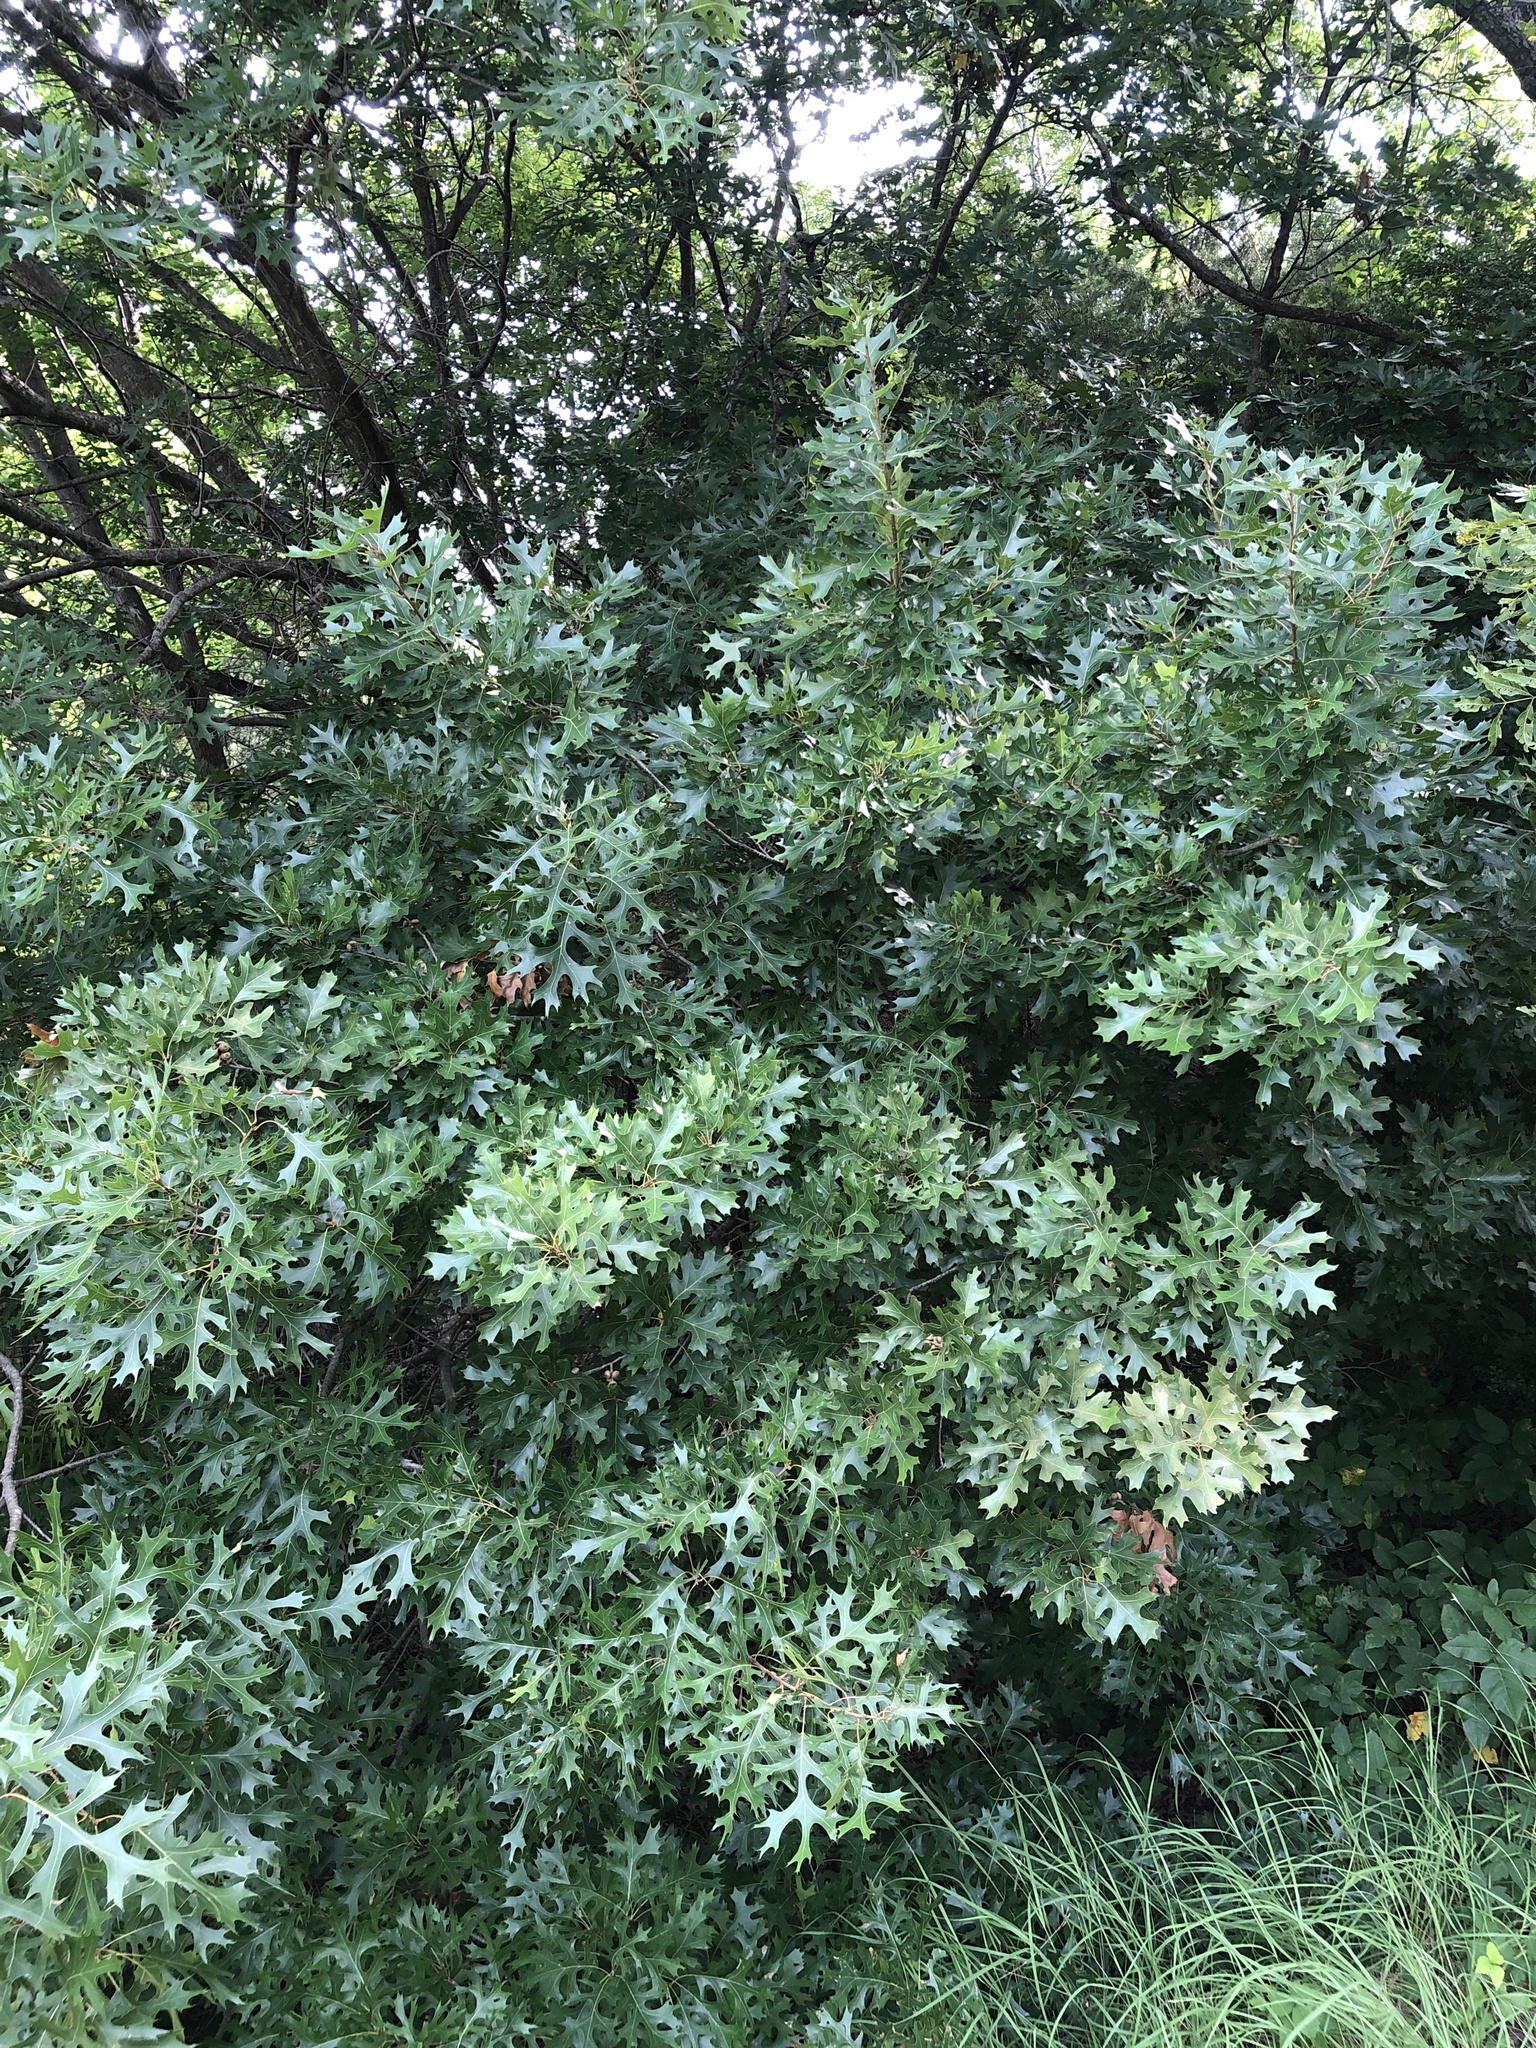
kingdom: Plantae
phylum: Tracheophyta
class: Magnoliopsida
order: Fagales
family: Fagaceae
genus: Quercus
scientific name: Quercus shumardii
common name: Shumard oak
